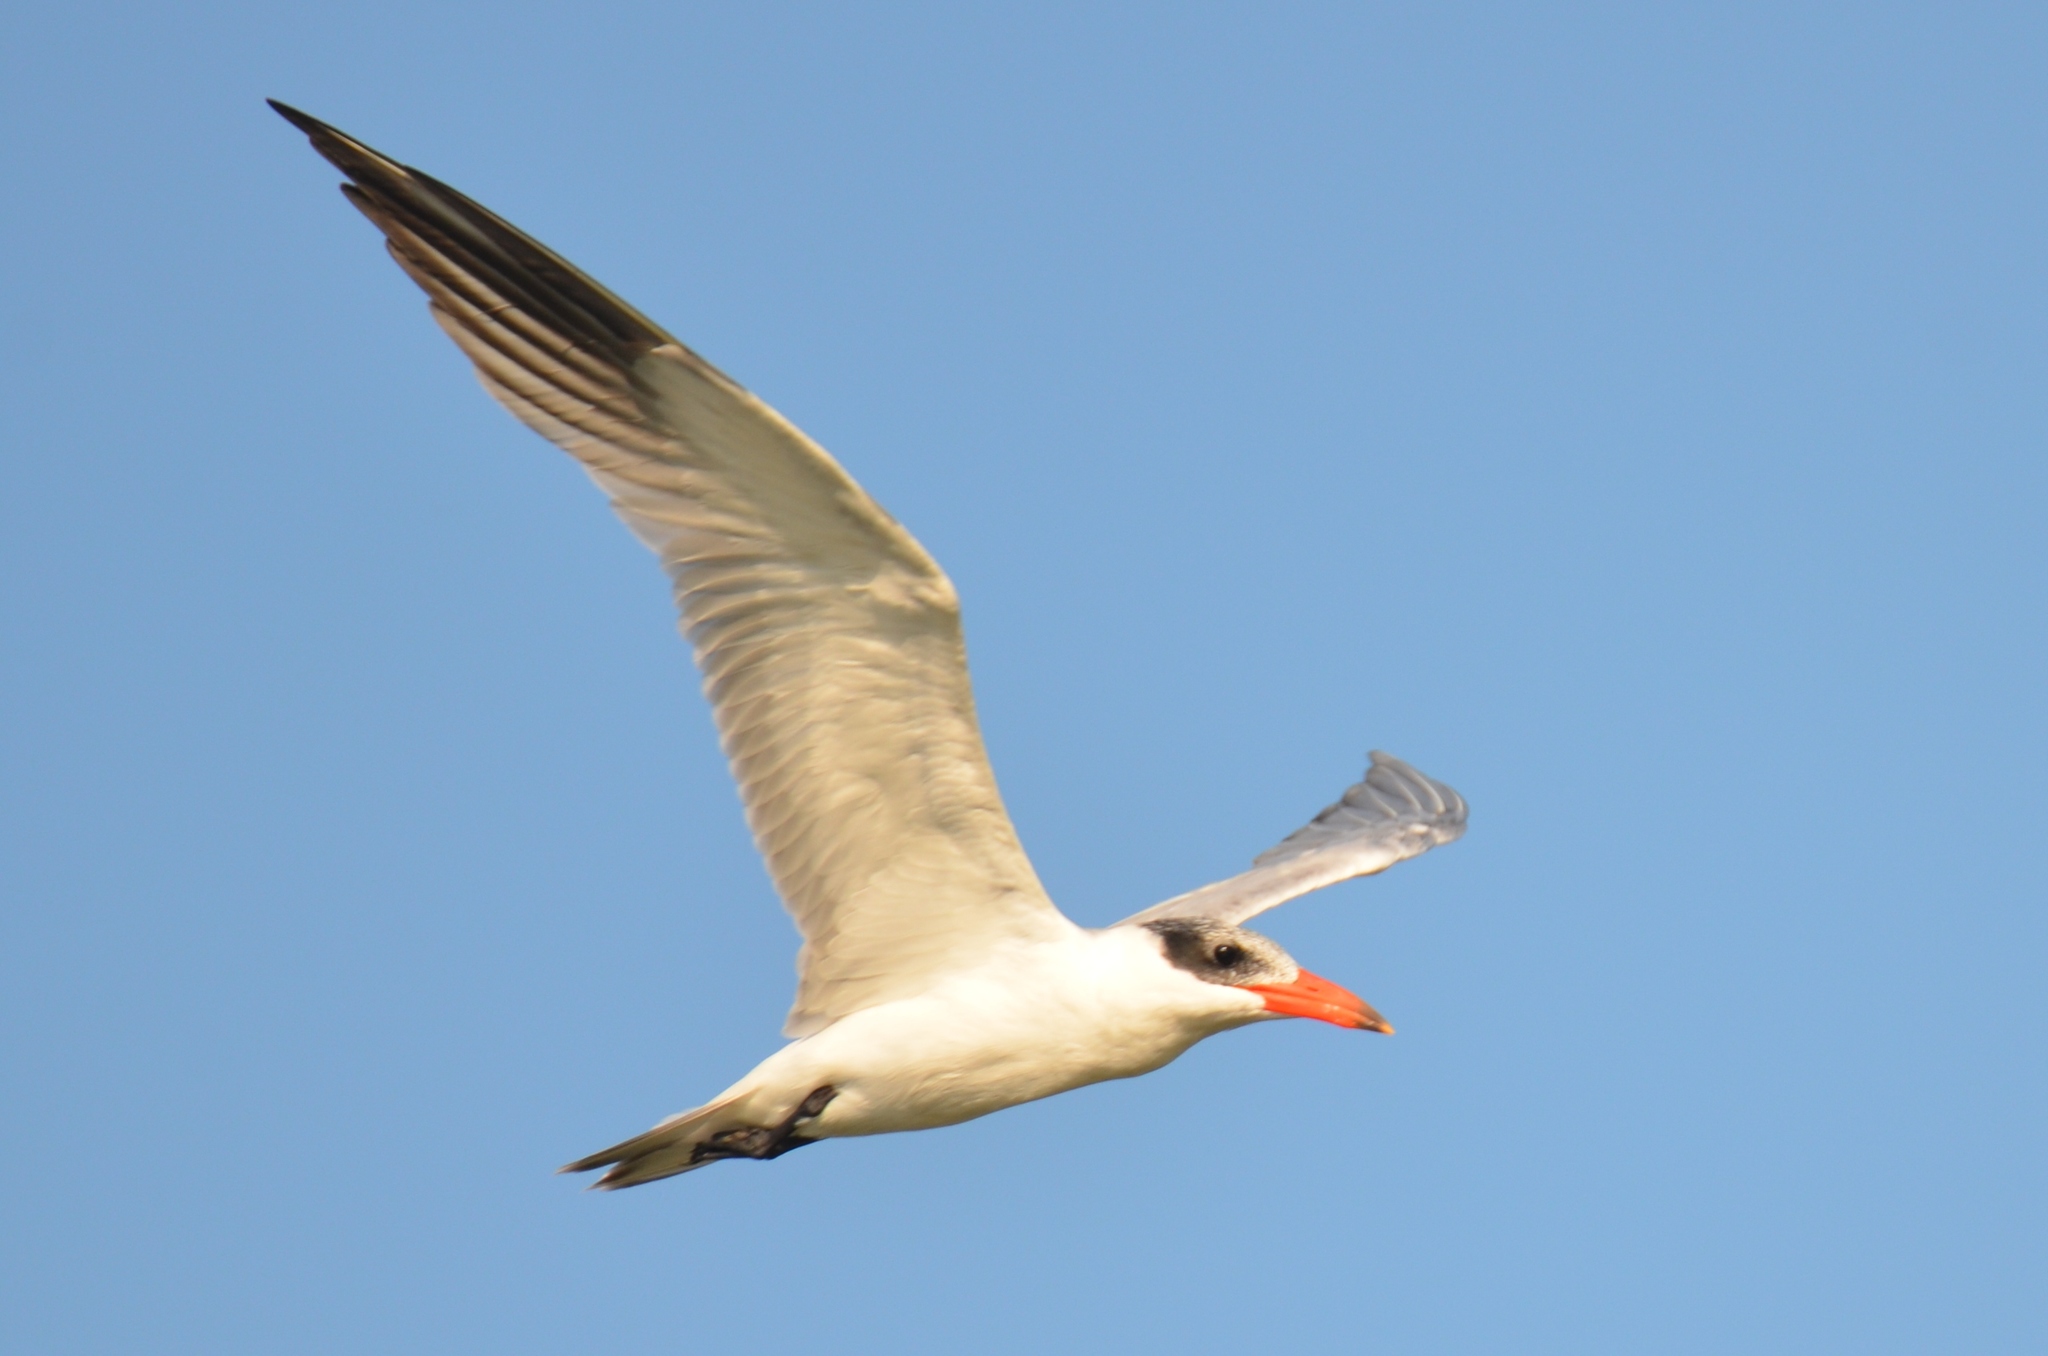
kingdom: Animalia
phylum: Chordata
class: Aves
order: Charadriiformes
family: Laridae
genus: Hydroprogne
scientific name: Hydroprogne caspia
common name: Caspian tern
